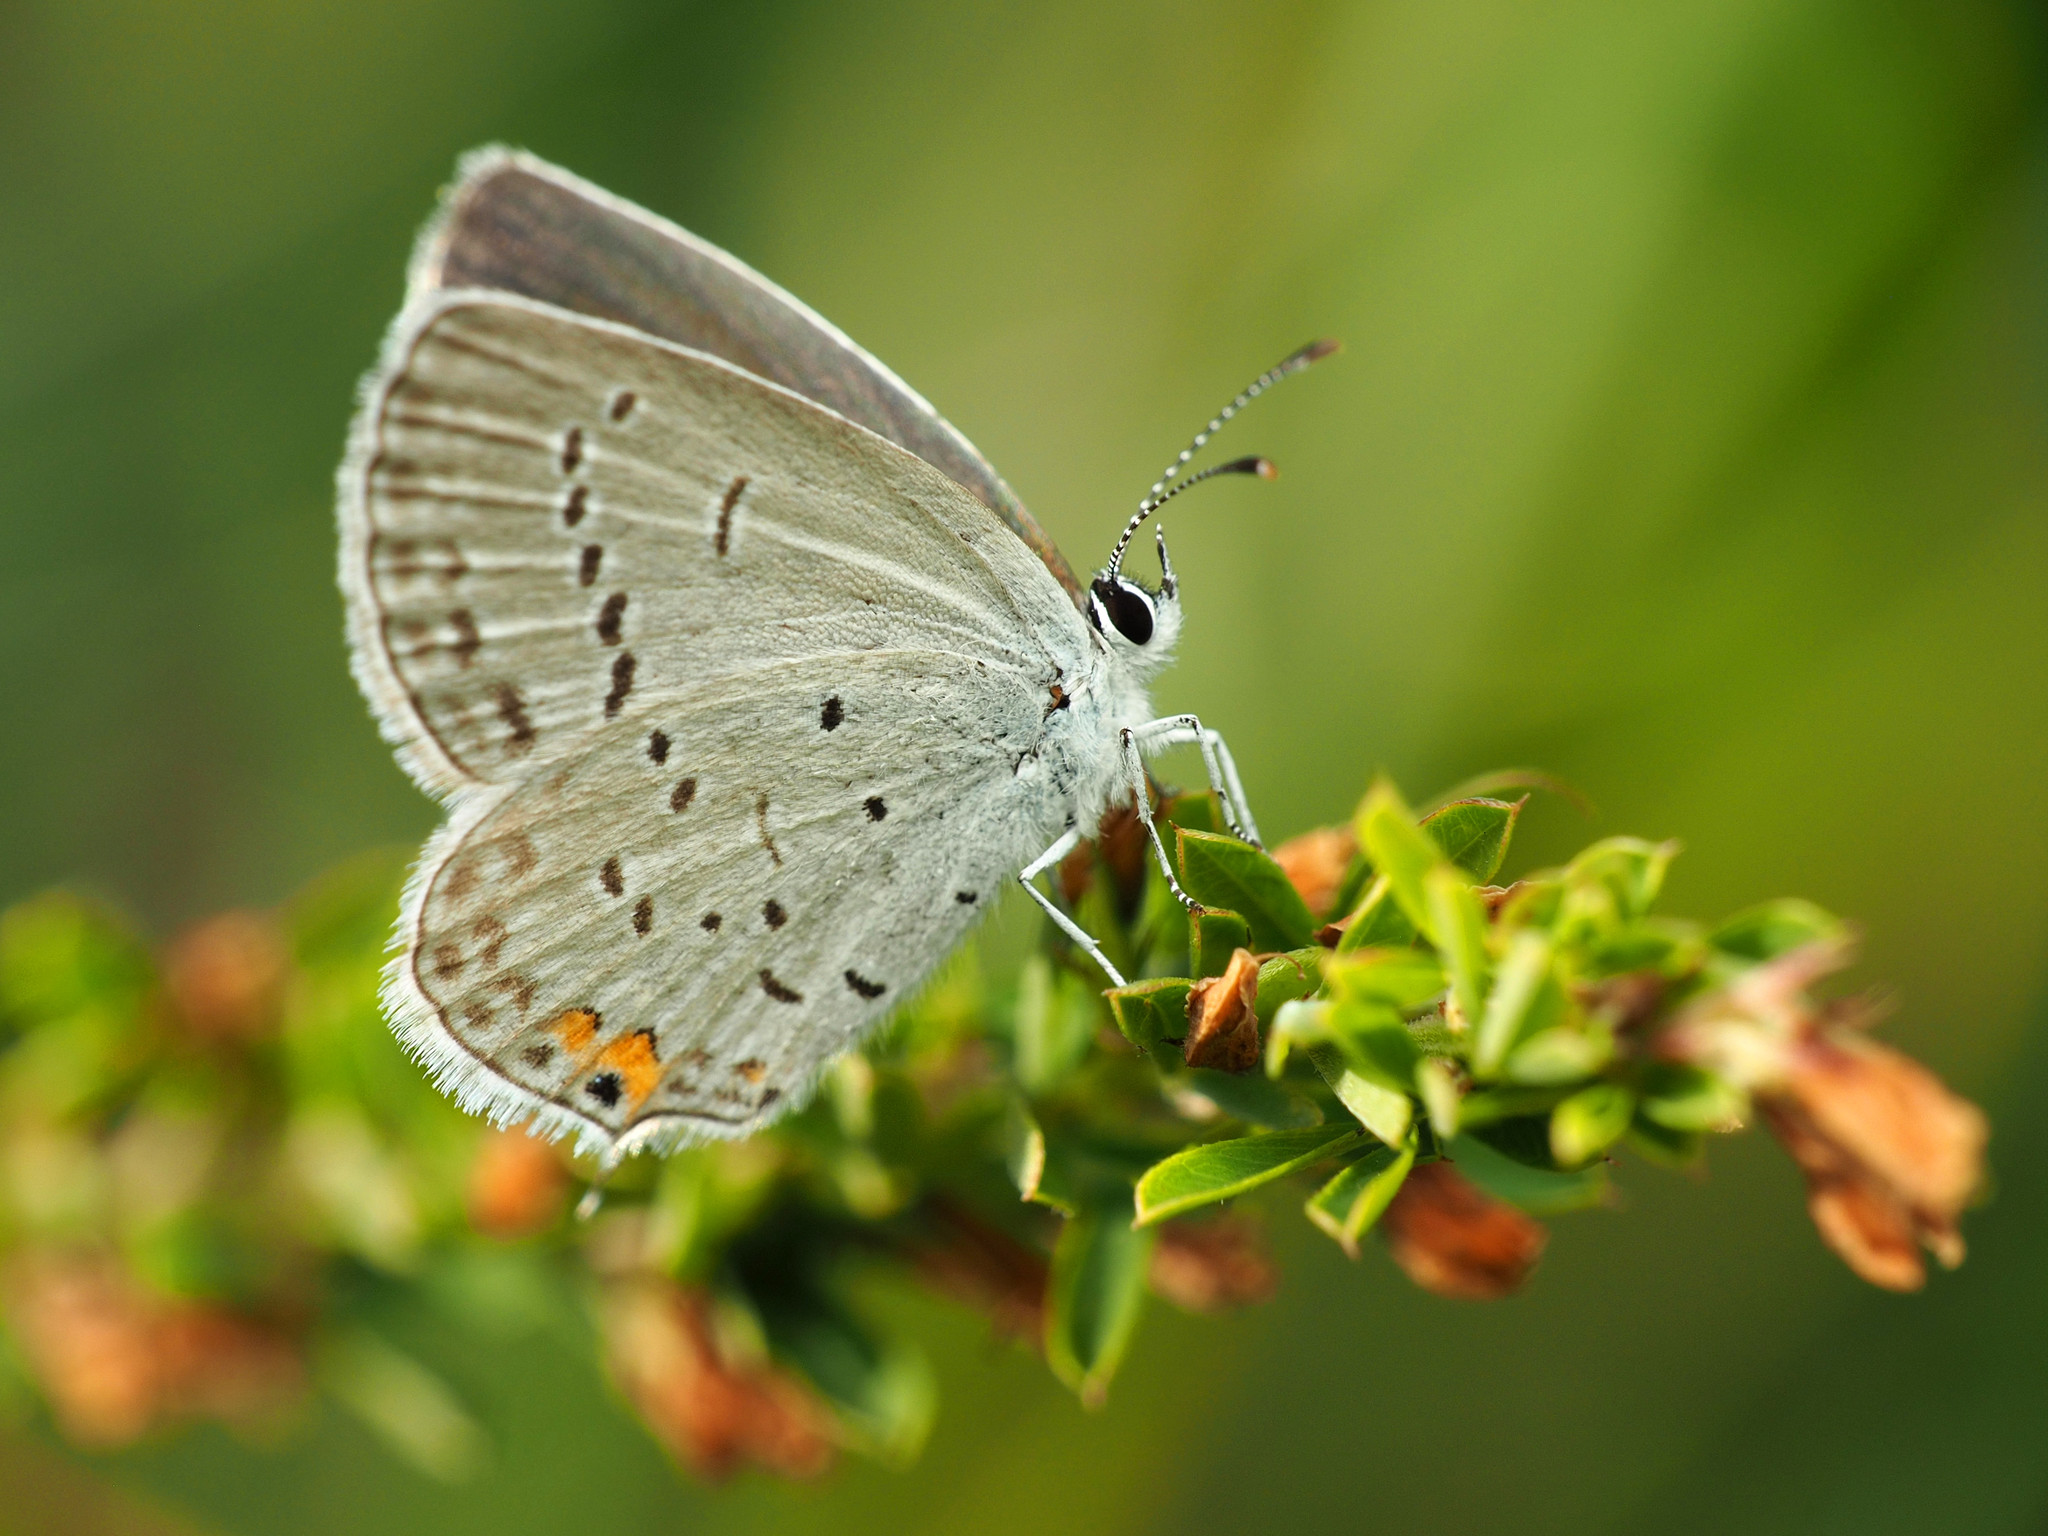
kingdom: Animalia
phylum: Arthropoda
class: Insecta
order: Lepidoptera
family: Lycaenidae
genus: Elkalyce
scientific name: Elkalyce comyntas
